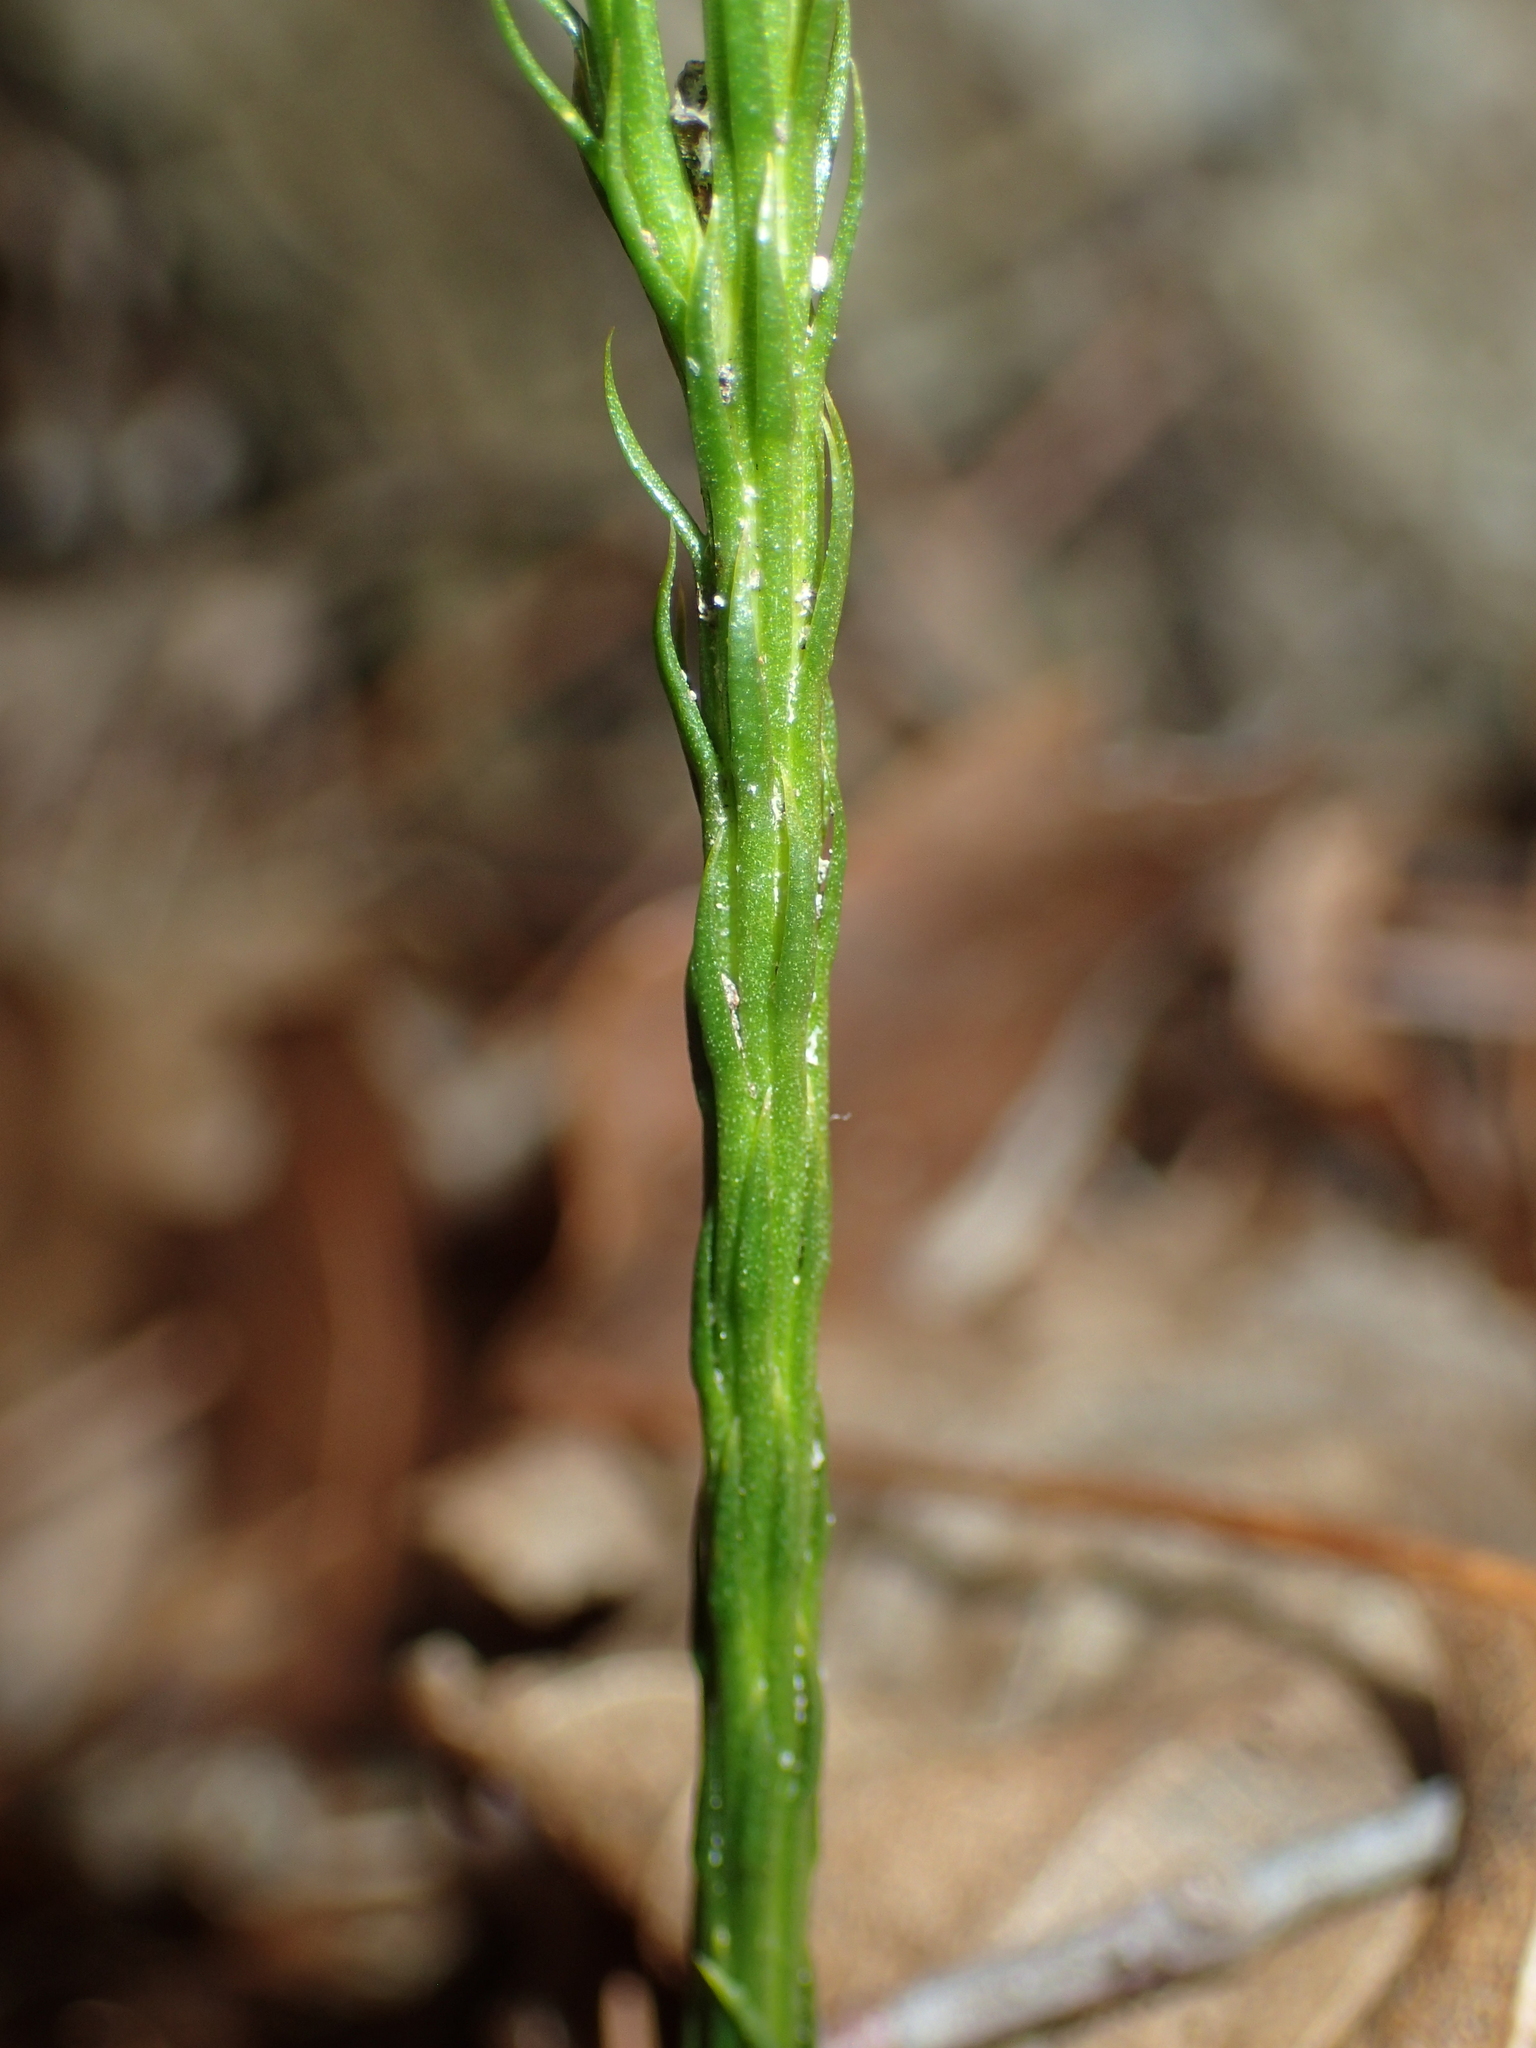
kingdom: Plantae
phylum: Tracheophyta
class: Lycopodiopsida
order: Lycopodiales
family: Lycopodiaceae
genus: Dendrolycopodium
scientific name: Dendrolycopodium obscurum
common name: Common ground-pine
